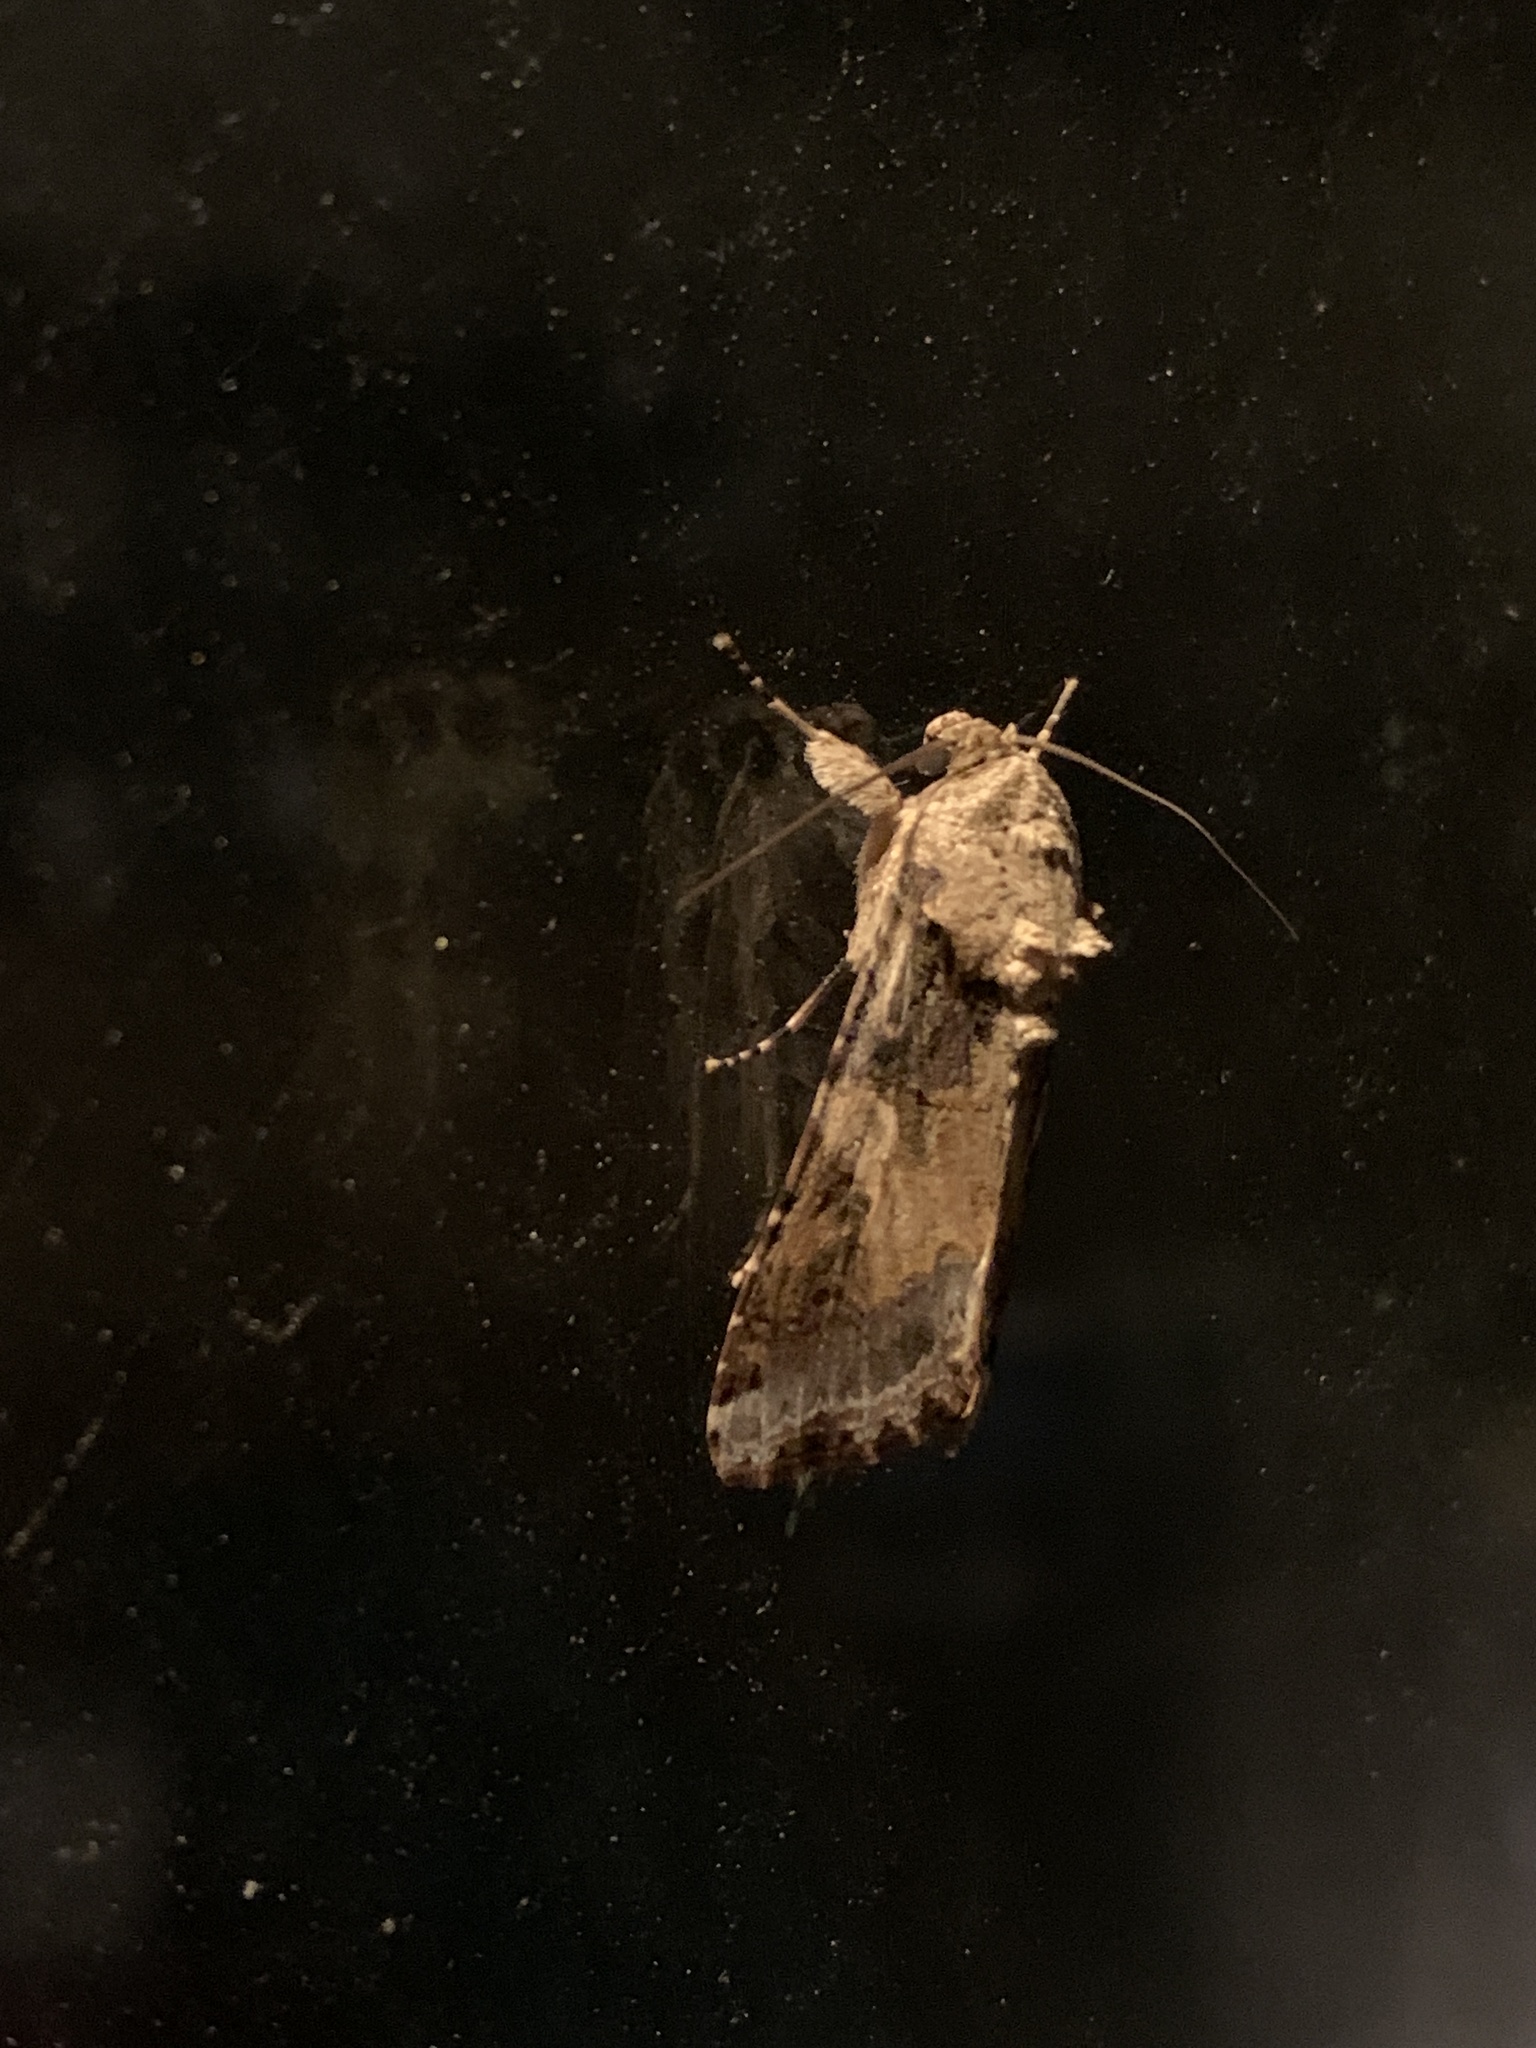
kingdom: Animalia
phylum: Arthropoda
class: Insecta
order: Lepidoptera
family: Noctuidae
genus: Spodoptera
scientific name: Spodoptera latifascia
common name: Velvet armyworm moth
